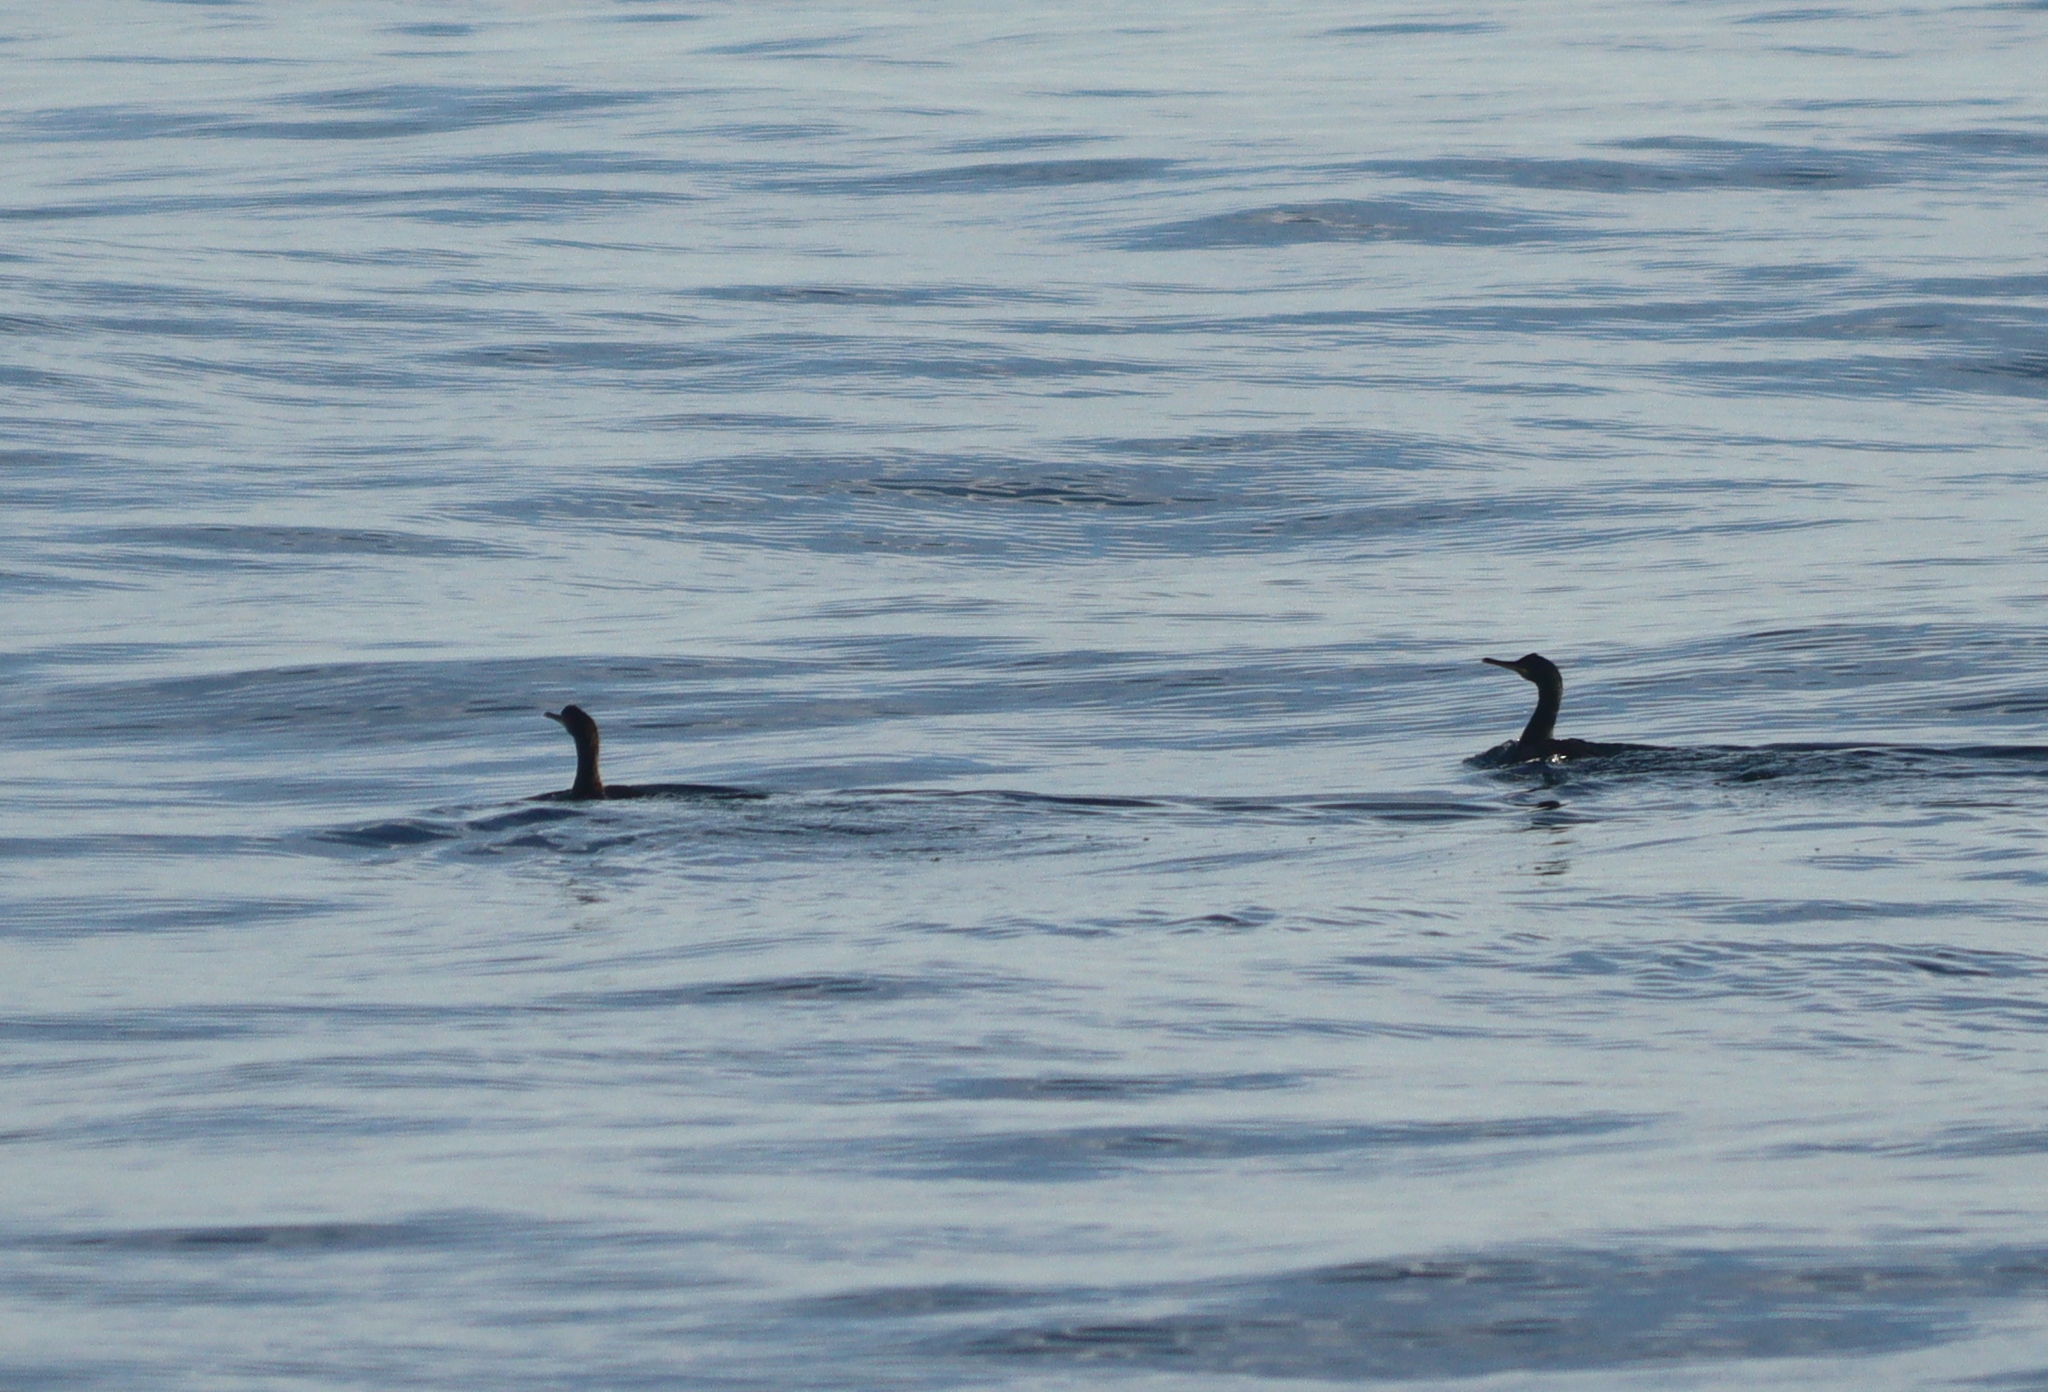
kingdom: Animalia
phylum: Chordata
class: Aves
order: Suliformes
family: Phalacrocoracidae
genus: Phalacrocorax
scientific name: Phalacrocorax aristotelis
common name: European shag
